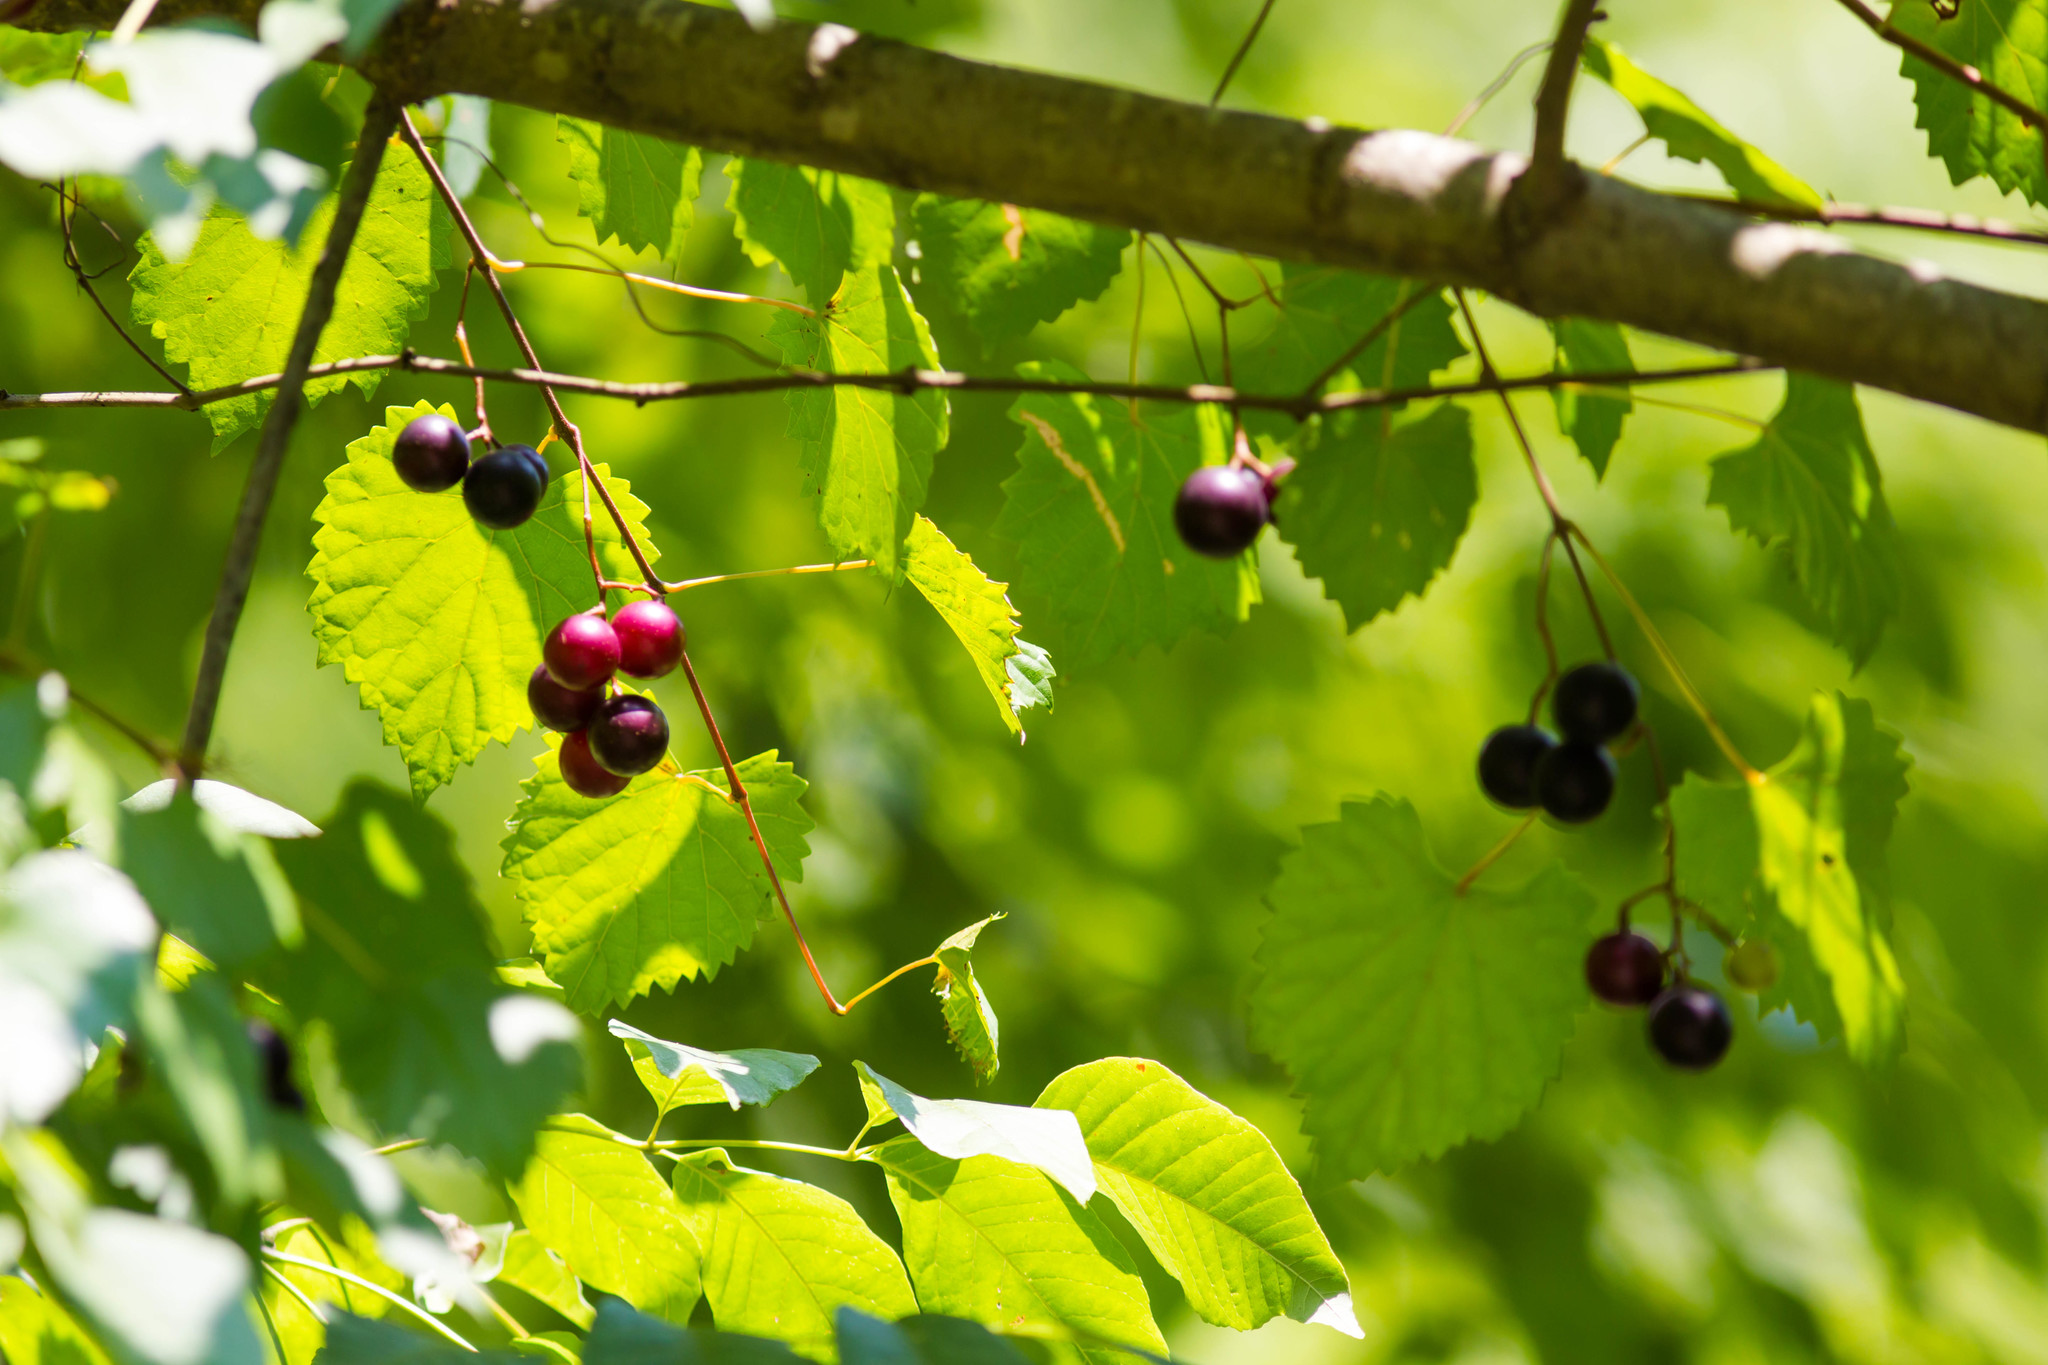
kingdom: Plantae
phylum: Tracheophyta
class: Magnoliopsida
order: Vitales
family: Vitaceae
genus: Vitis
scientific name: Vitis rotundifolia
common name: Muscadine grape
